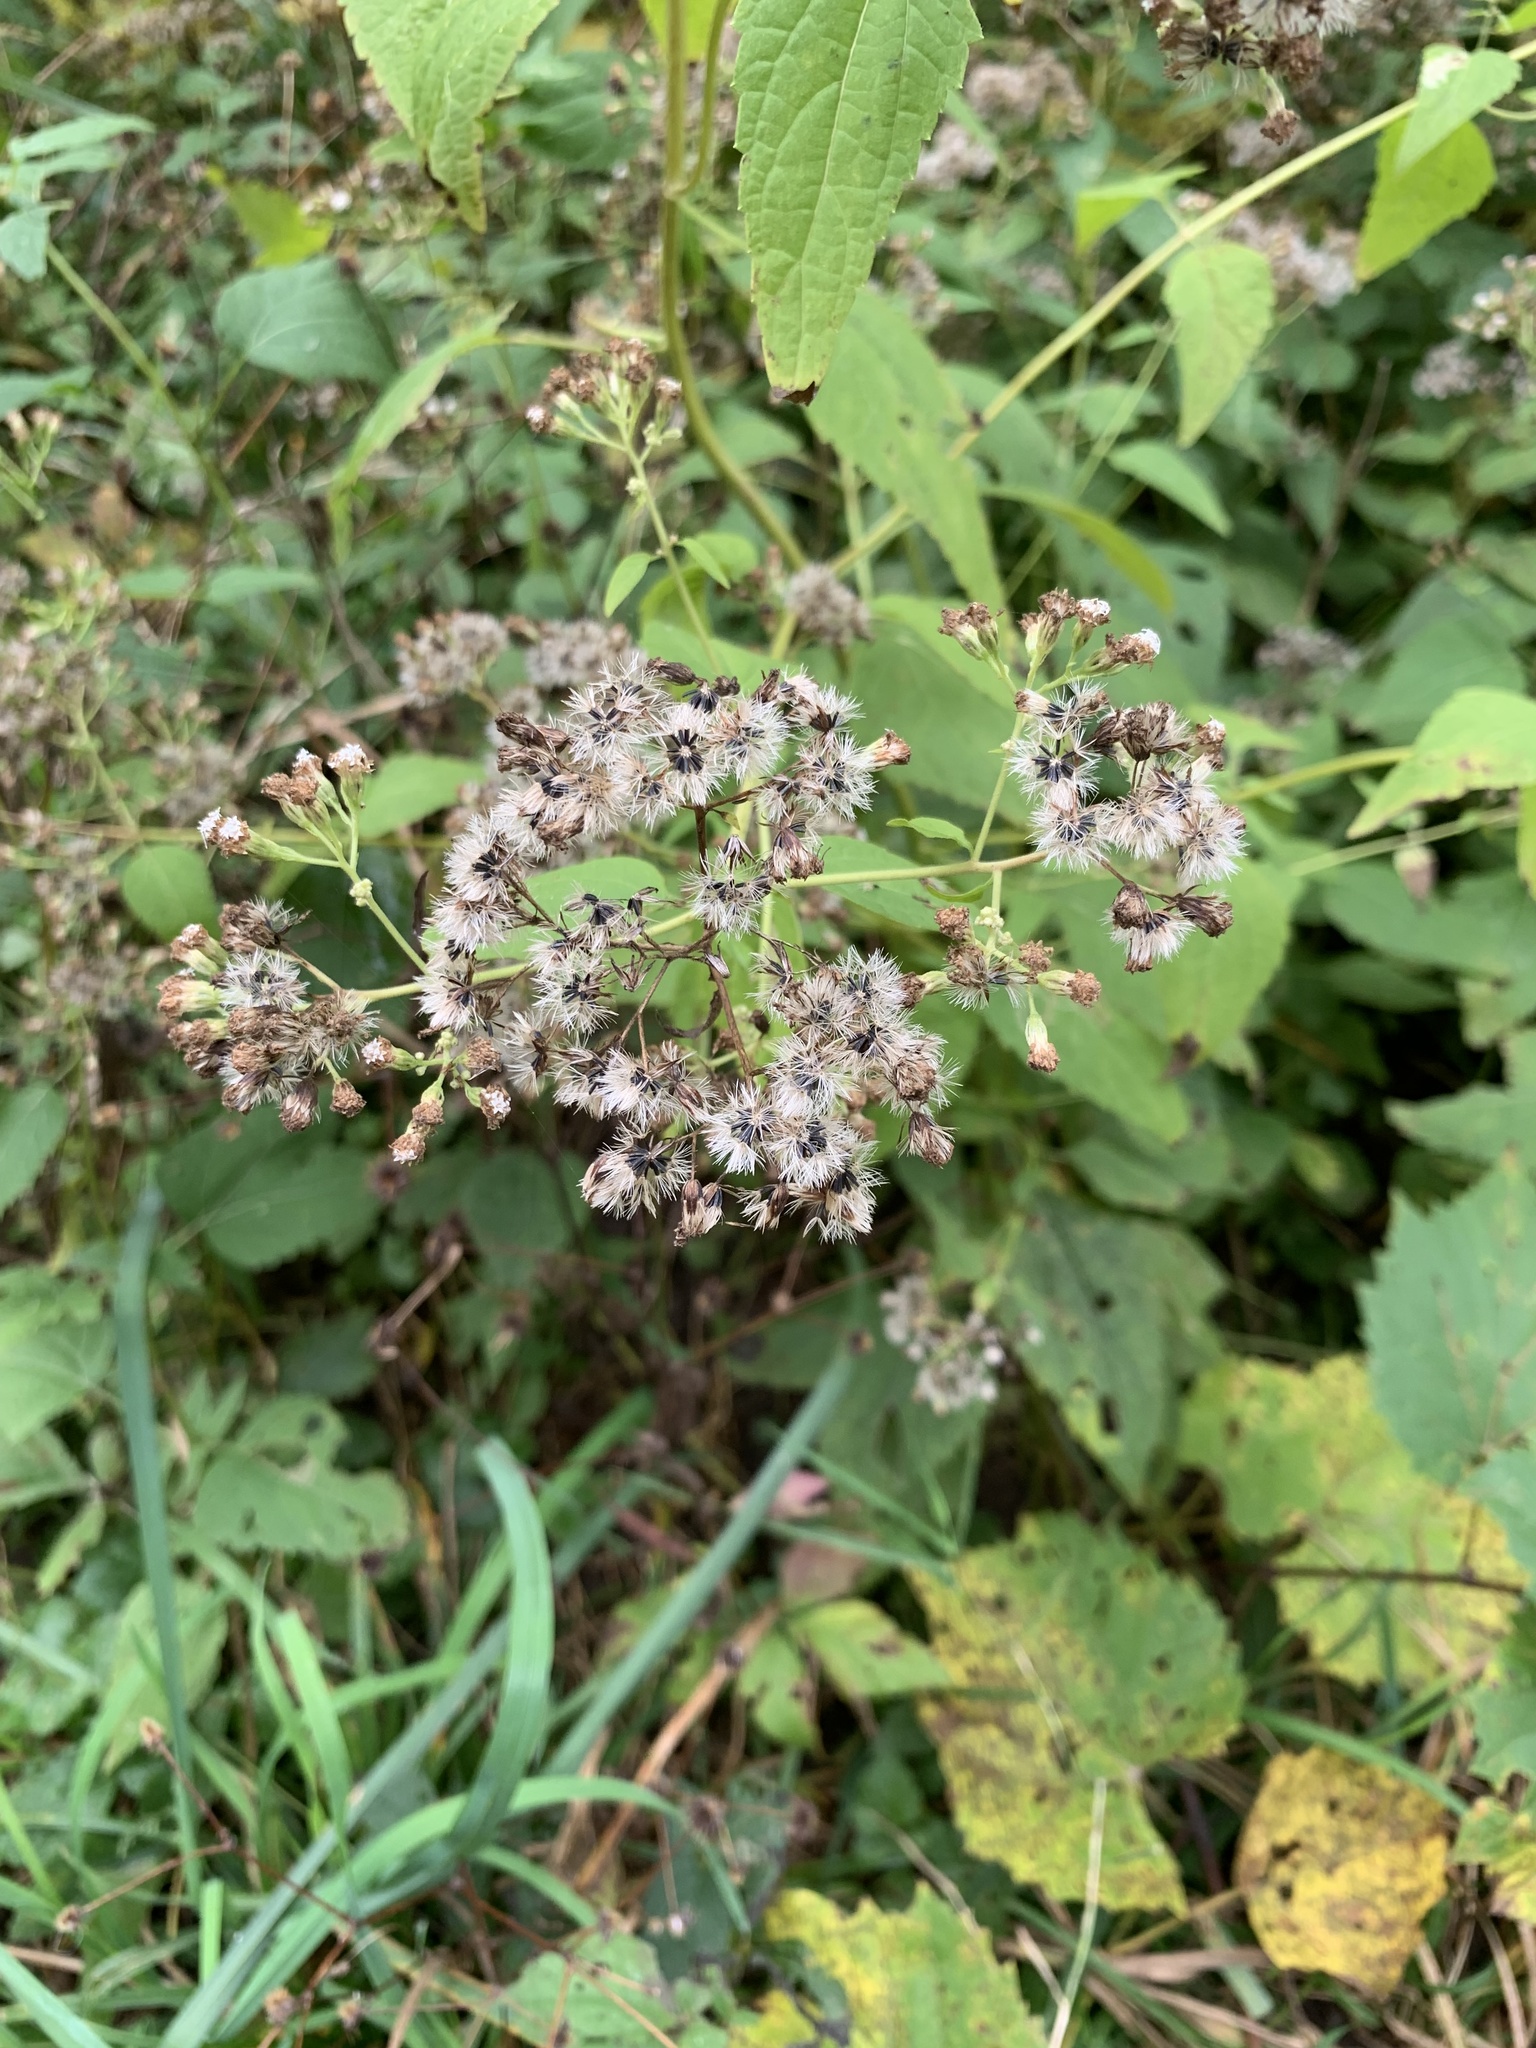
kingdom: Plantae
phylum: Tracheophyta
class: Magnoliopsida
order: Asterales
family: Asteraceae
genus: Ageratina
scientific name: Ageratina altissima
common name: White snakeroot
